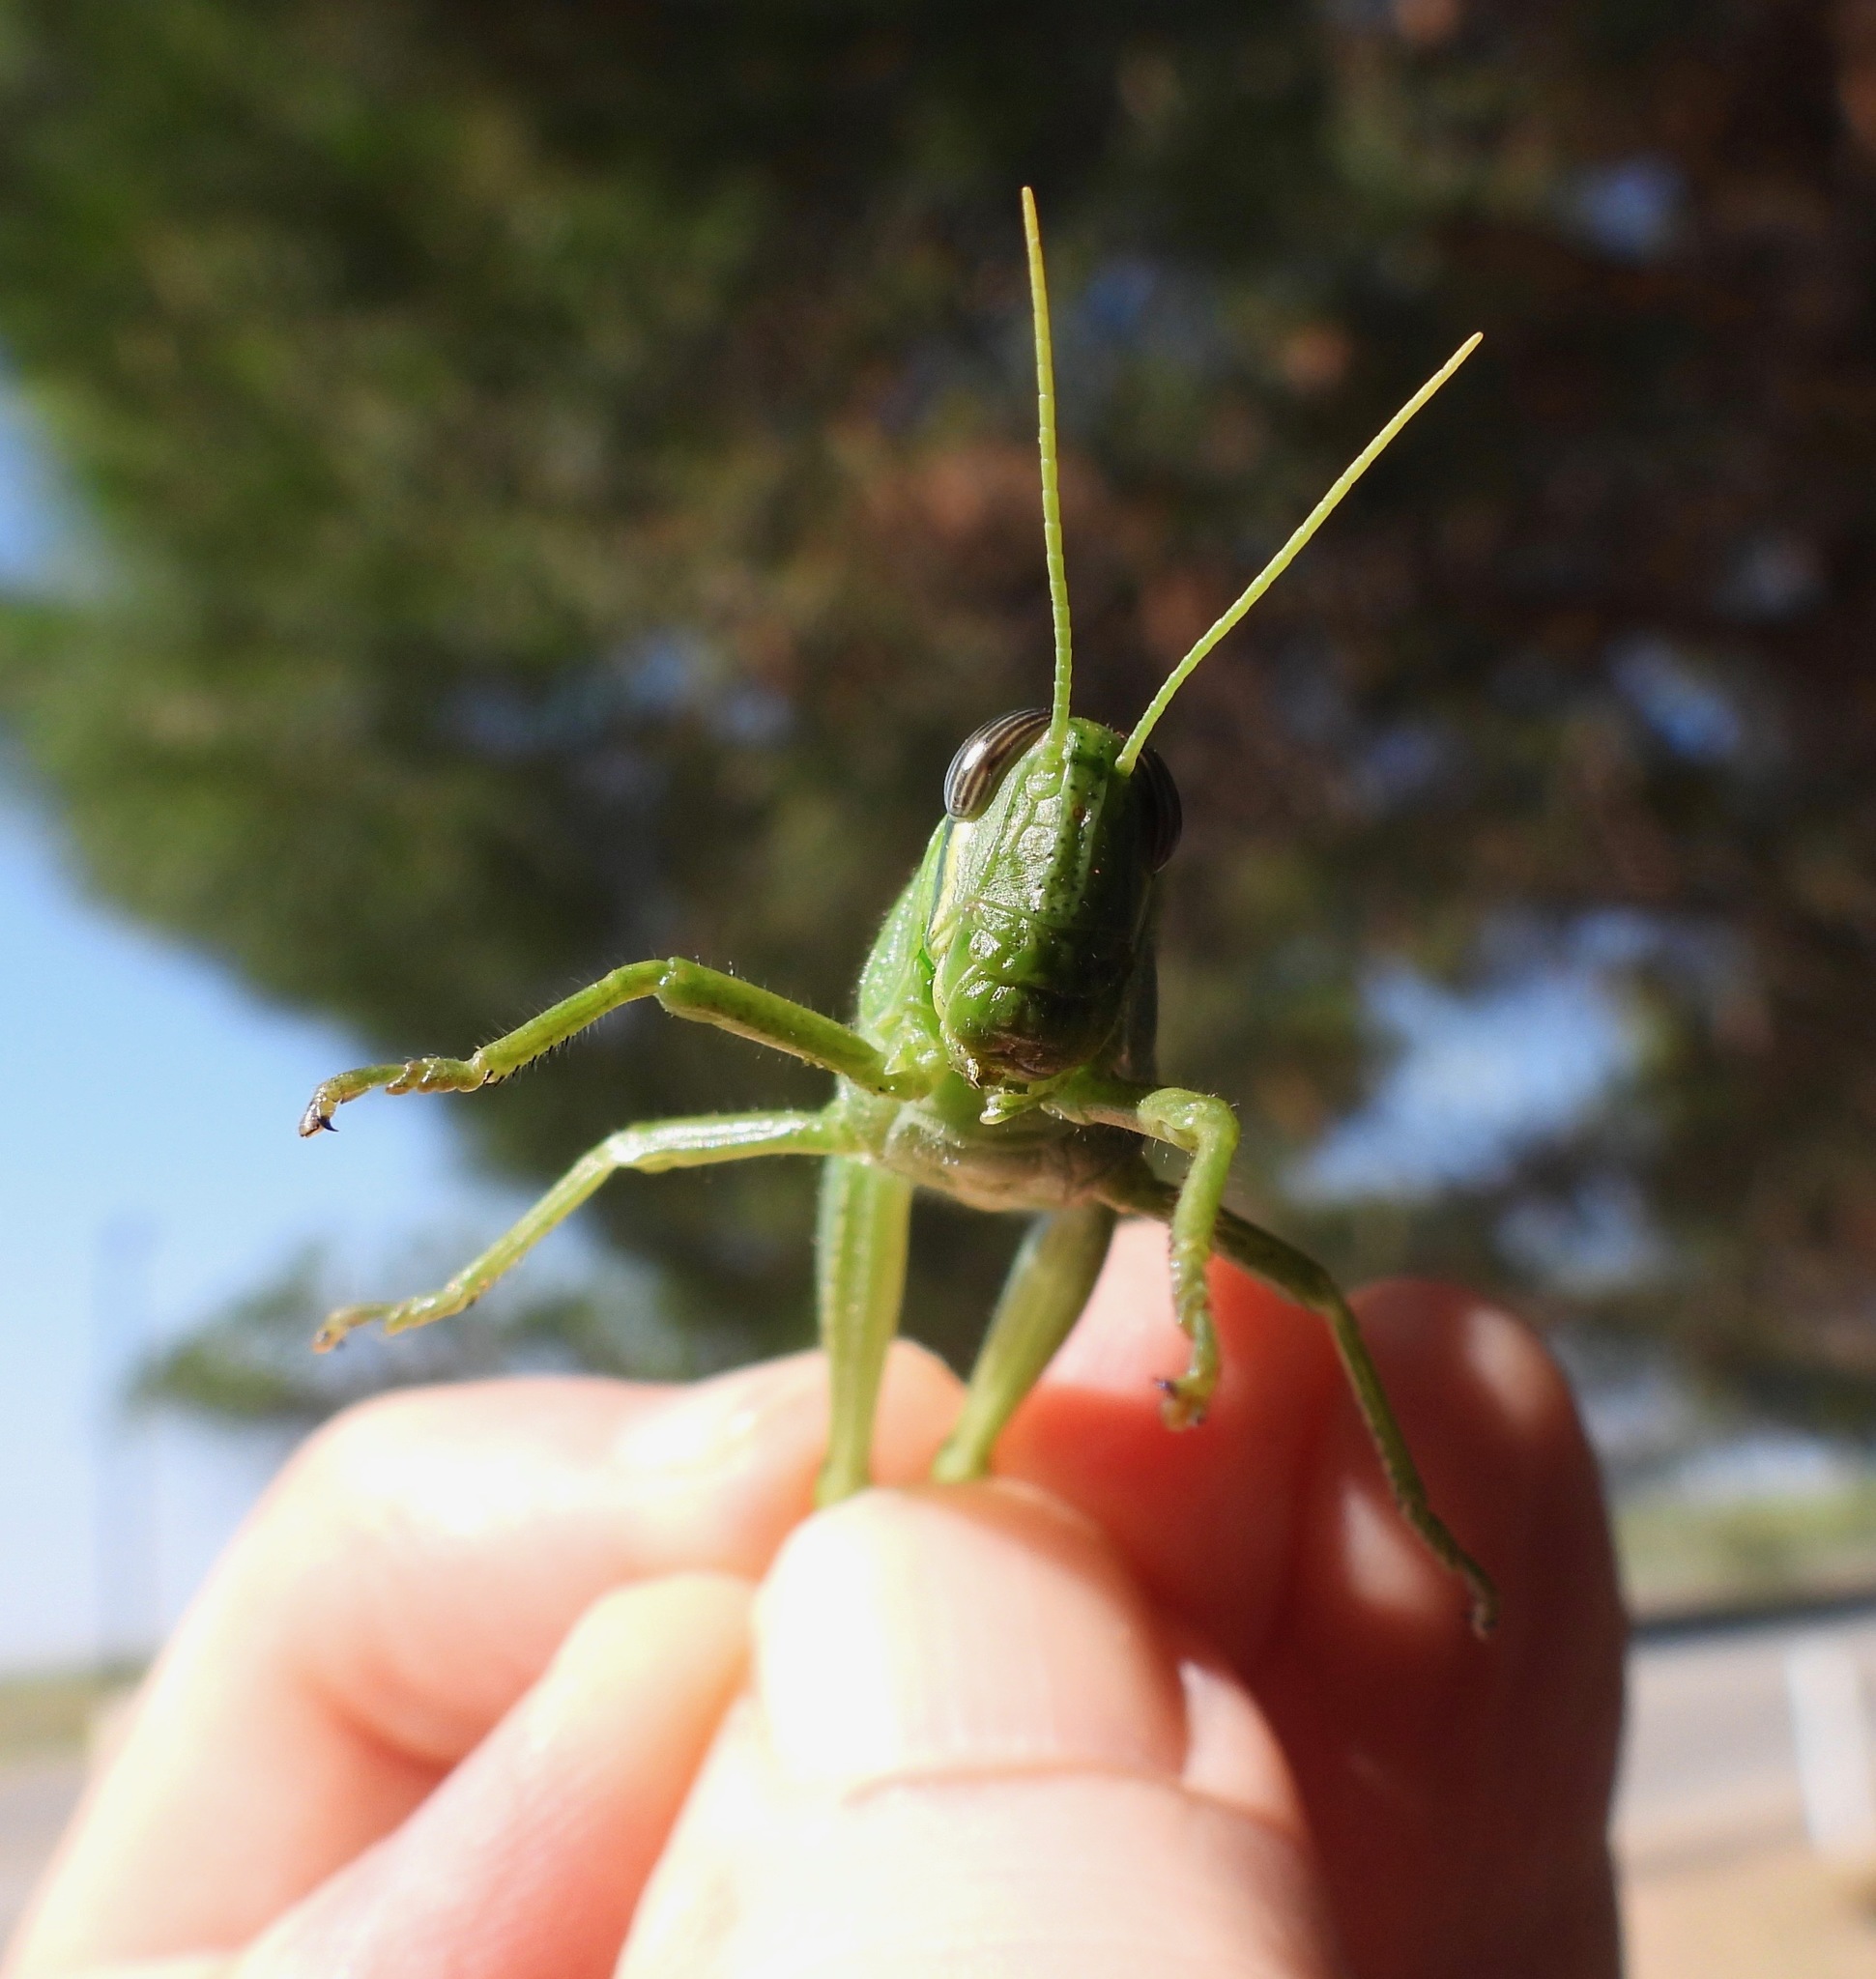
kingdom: Animalia
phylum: Arthropoda
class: Insecta
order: Orthoptera
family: Acrididae
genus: Schistocerca
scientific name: Schistocerca
